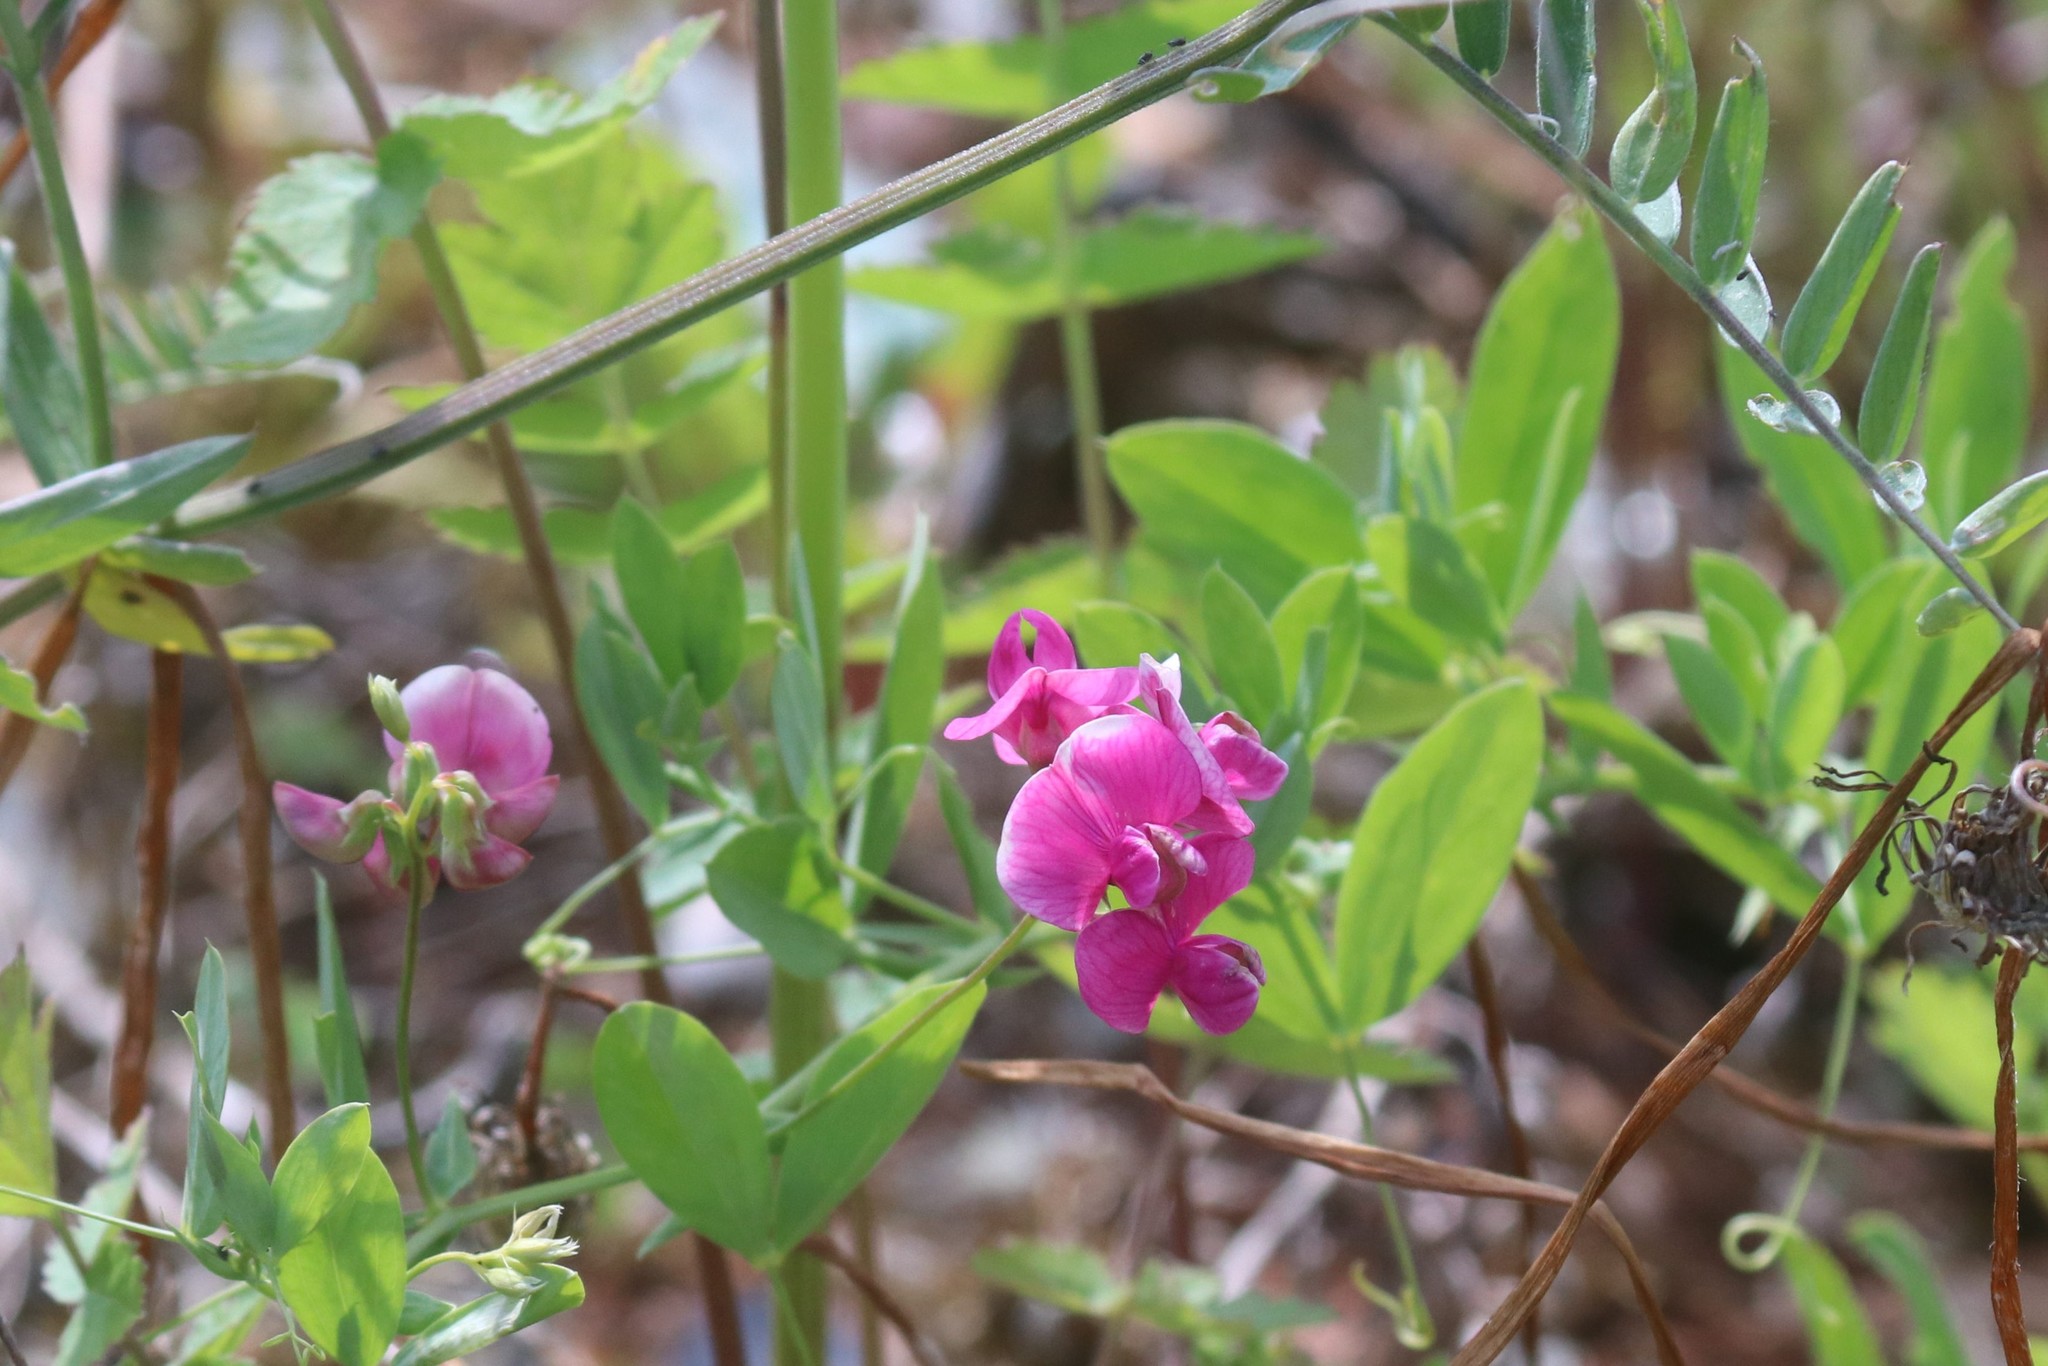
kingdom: Plantae
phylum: Tracheophyta
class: Magnoliopsida
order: Fabales
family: Fabaceae
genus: Lathyrus
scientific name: Lathyrus tuberosus
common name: Tuberous pea
